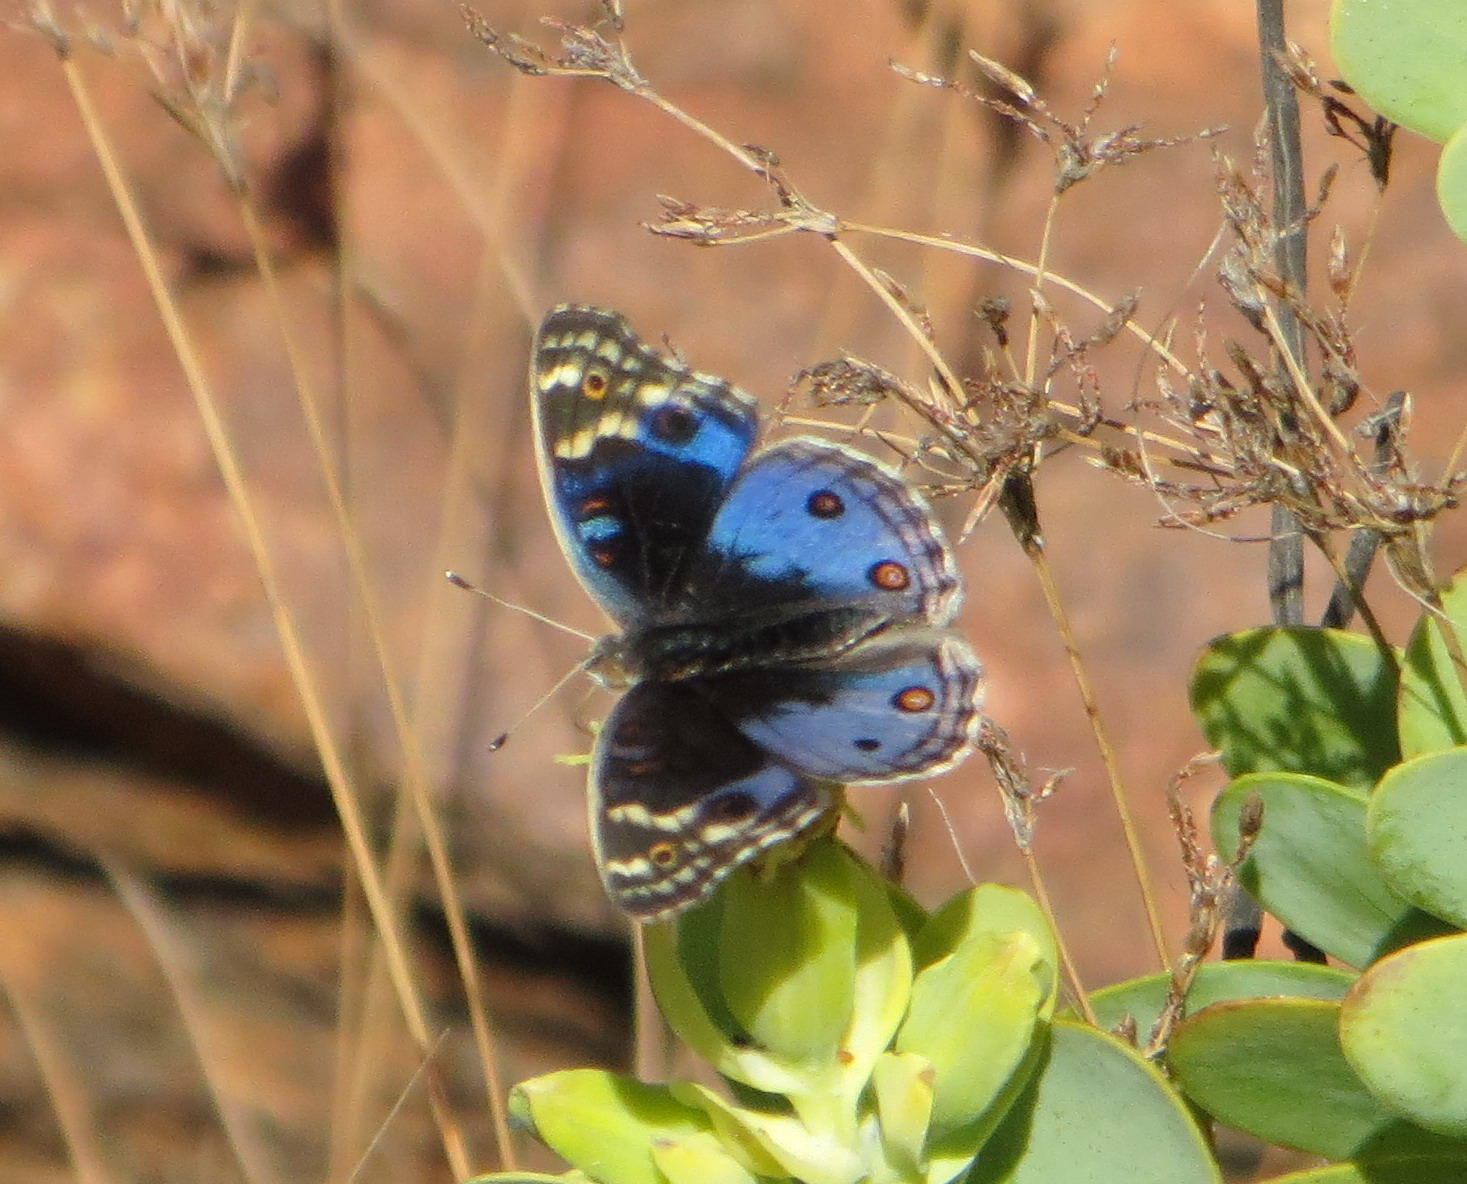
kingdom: Animalia
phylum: Arthropoda
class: Insecta
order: Lepidoptera
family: Nymphalidae
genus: Junonia
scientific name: Junonia orithya
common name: Blue pansy
